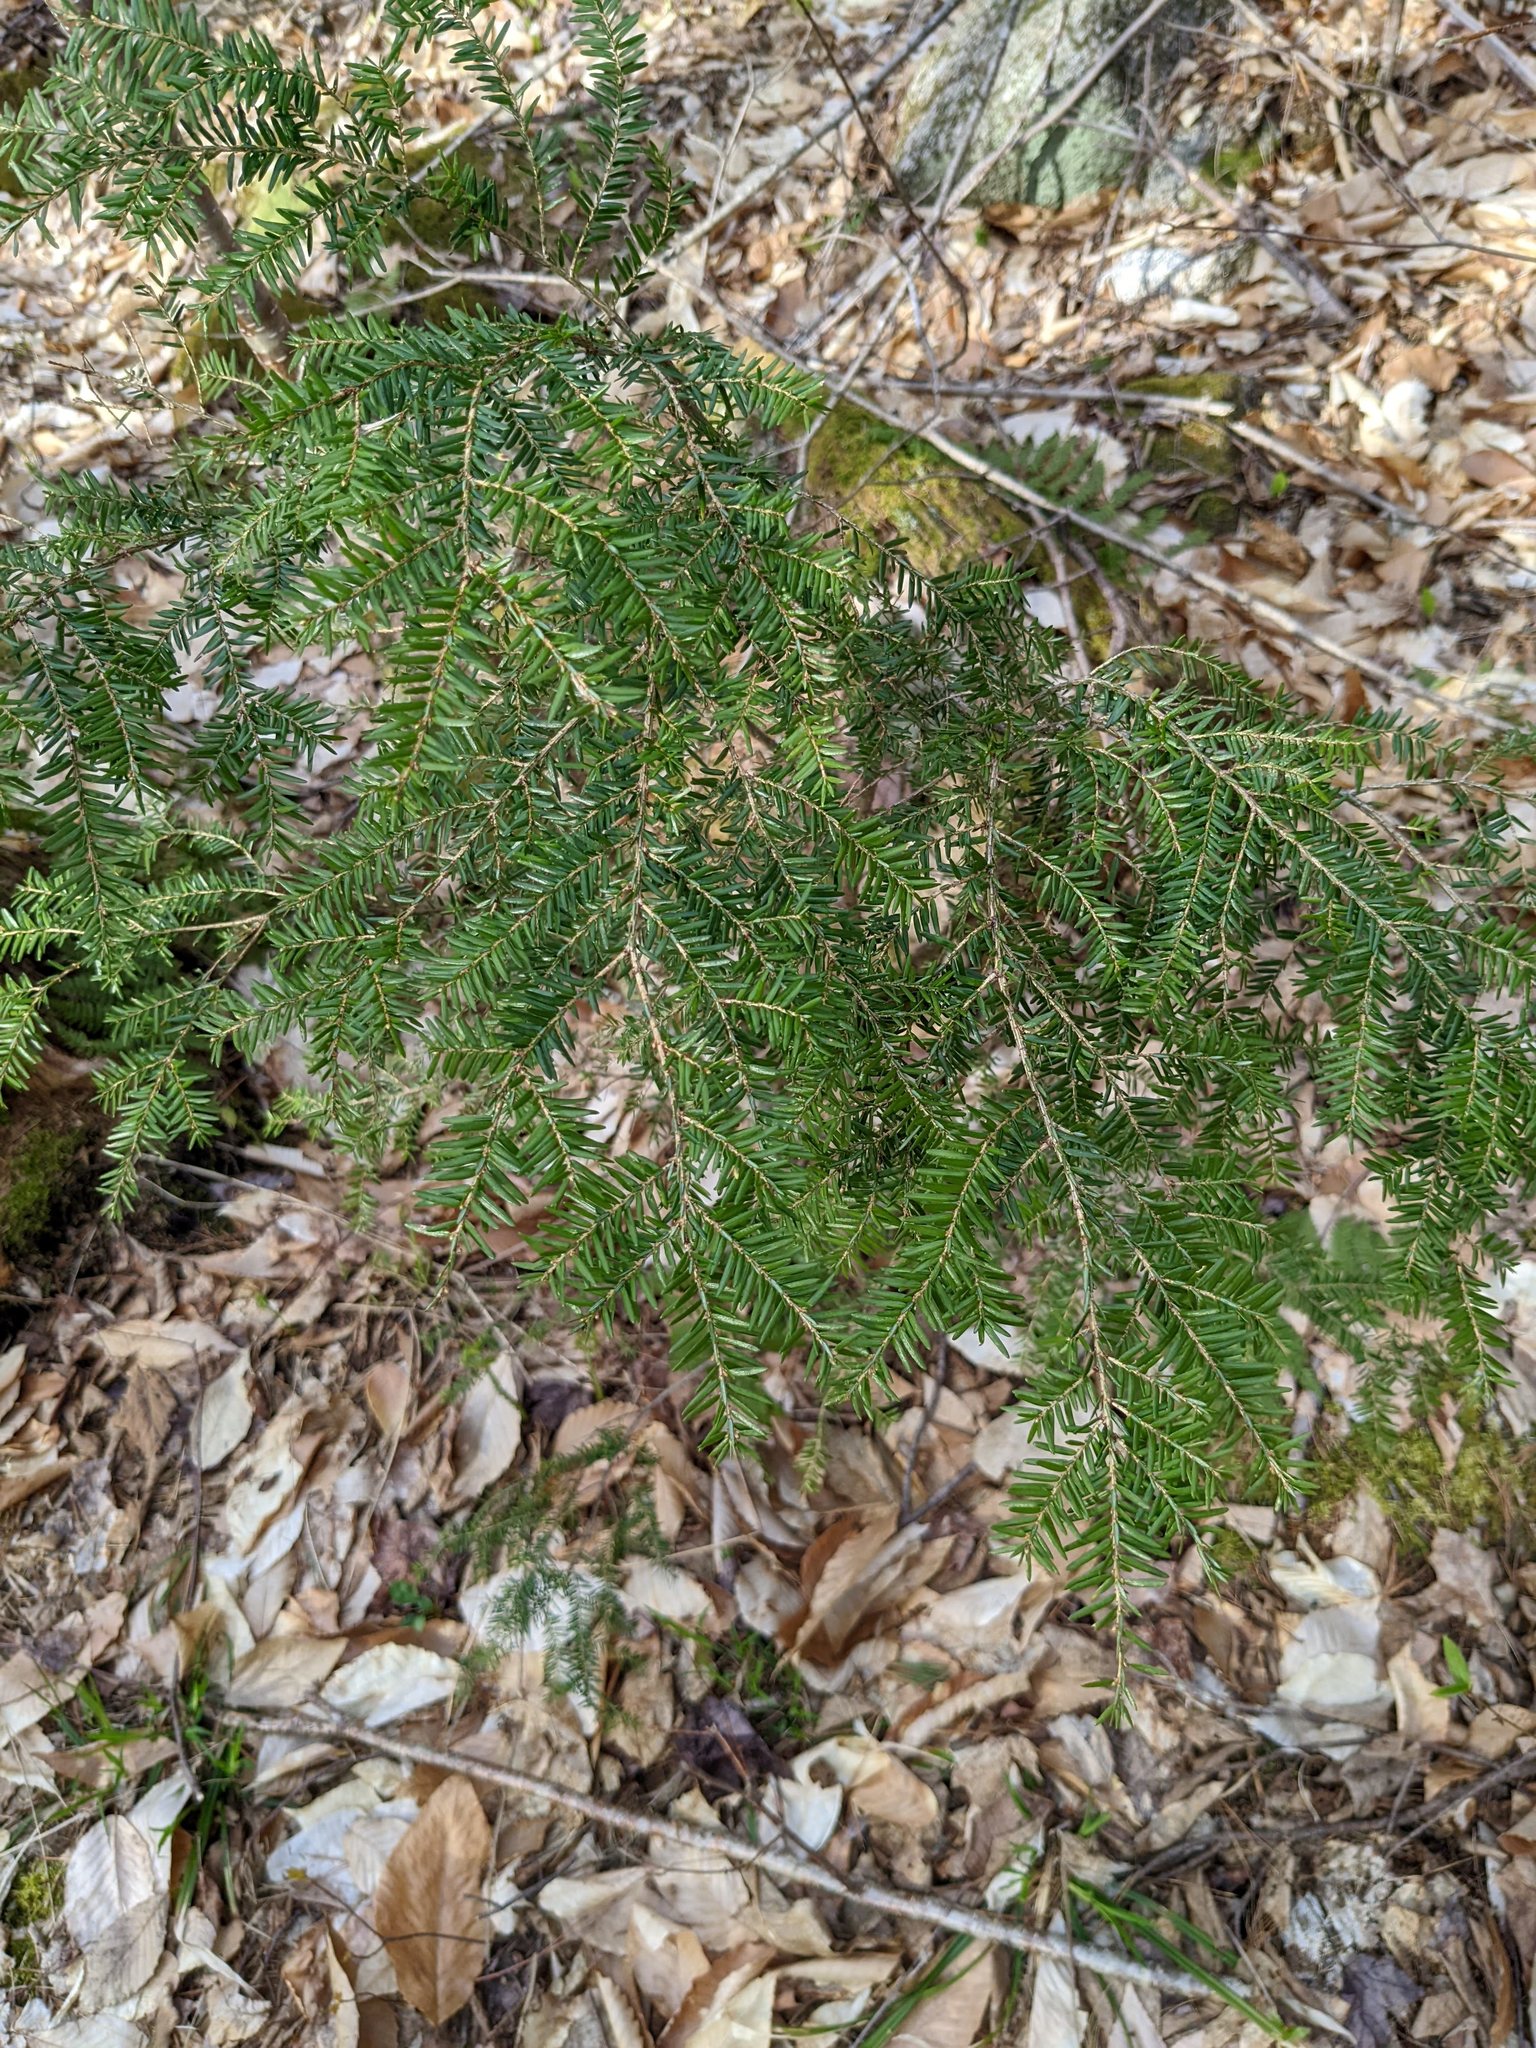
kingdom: Plantae
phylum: Tracheophyta
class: Pinopsida
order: Pinales
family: Pinaceae
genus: Tsuga
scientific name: Tsuga canadensis
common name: Eastern hemlock
